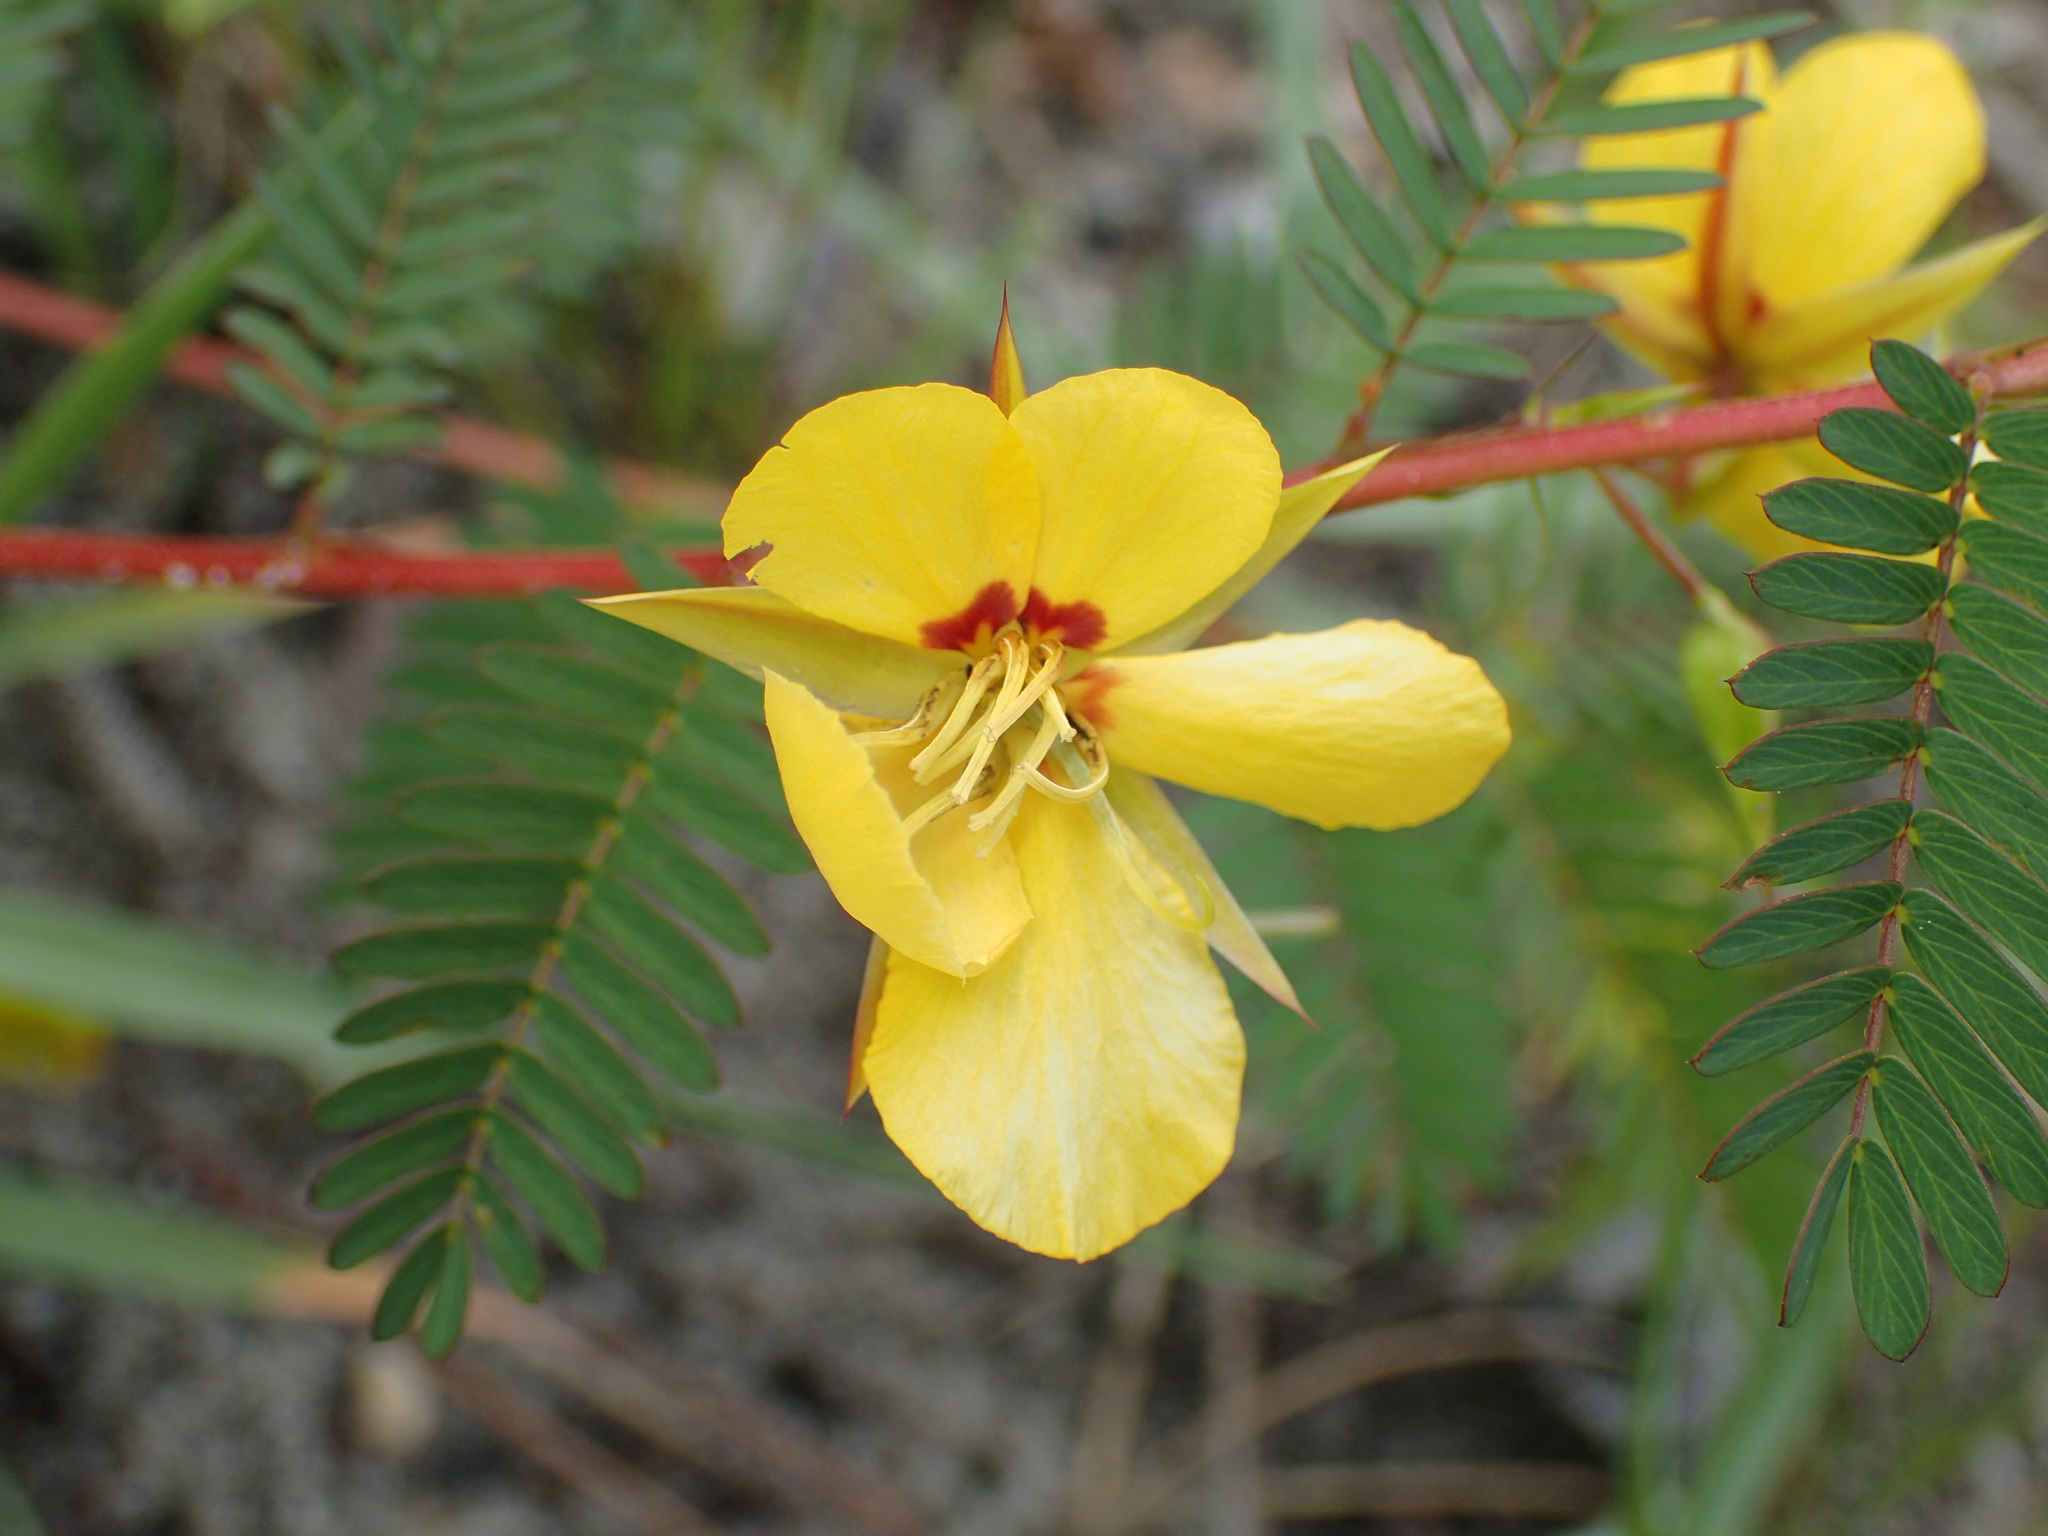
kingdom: Plantae
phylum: Tracheophyta
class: Magnoliopsida
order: Fabales
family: Fabaceae
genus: Chamaecrista
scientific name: Chamaecrista fasciculata
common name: Golden cassia
